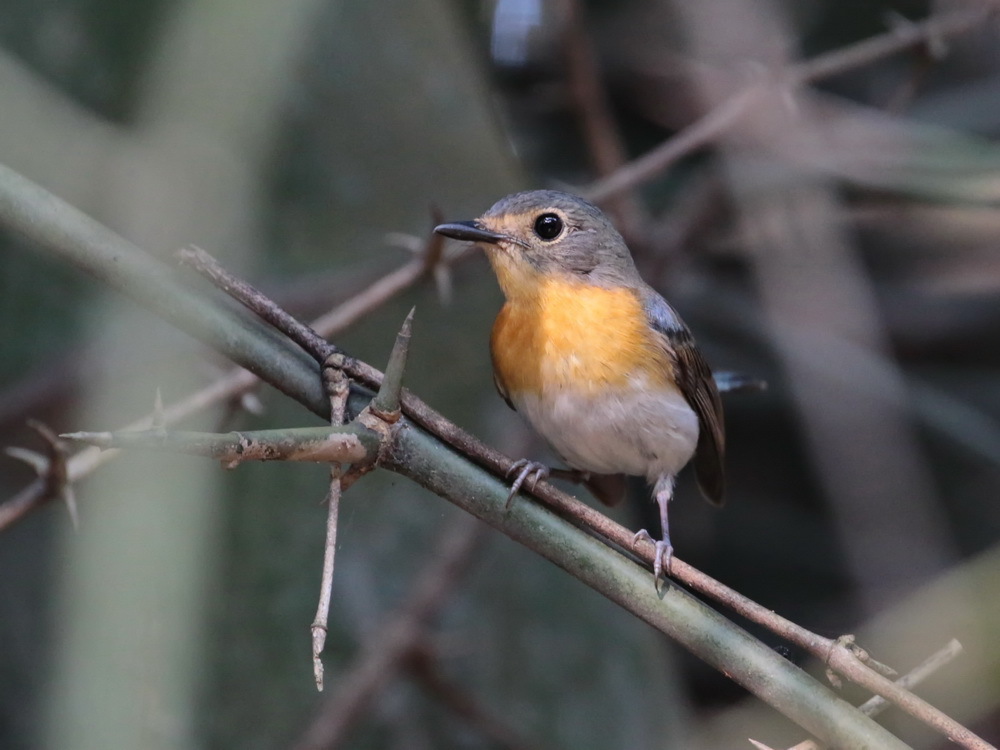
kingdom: Animalia
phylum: Chordata
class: Aves
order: Passeriformes
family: Muscicapidae
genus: Cyornis
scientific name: Cyornis tickelliae
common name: Tickell's blue flycatcher
